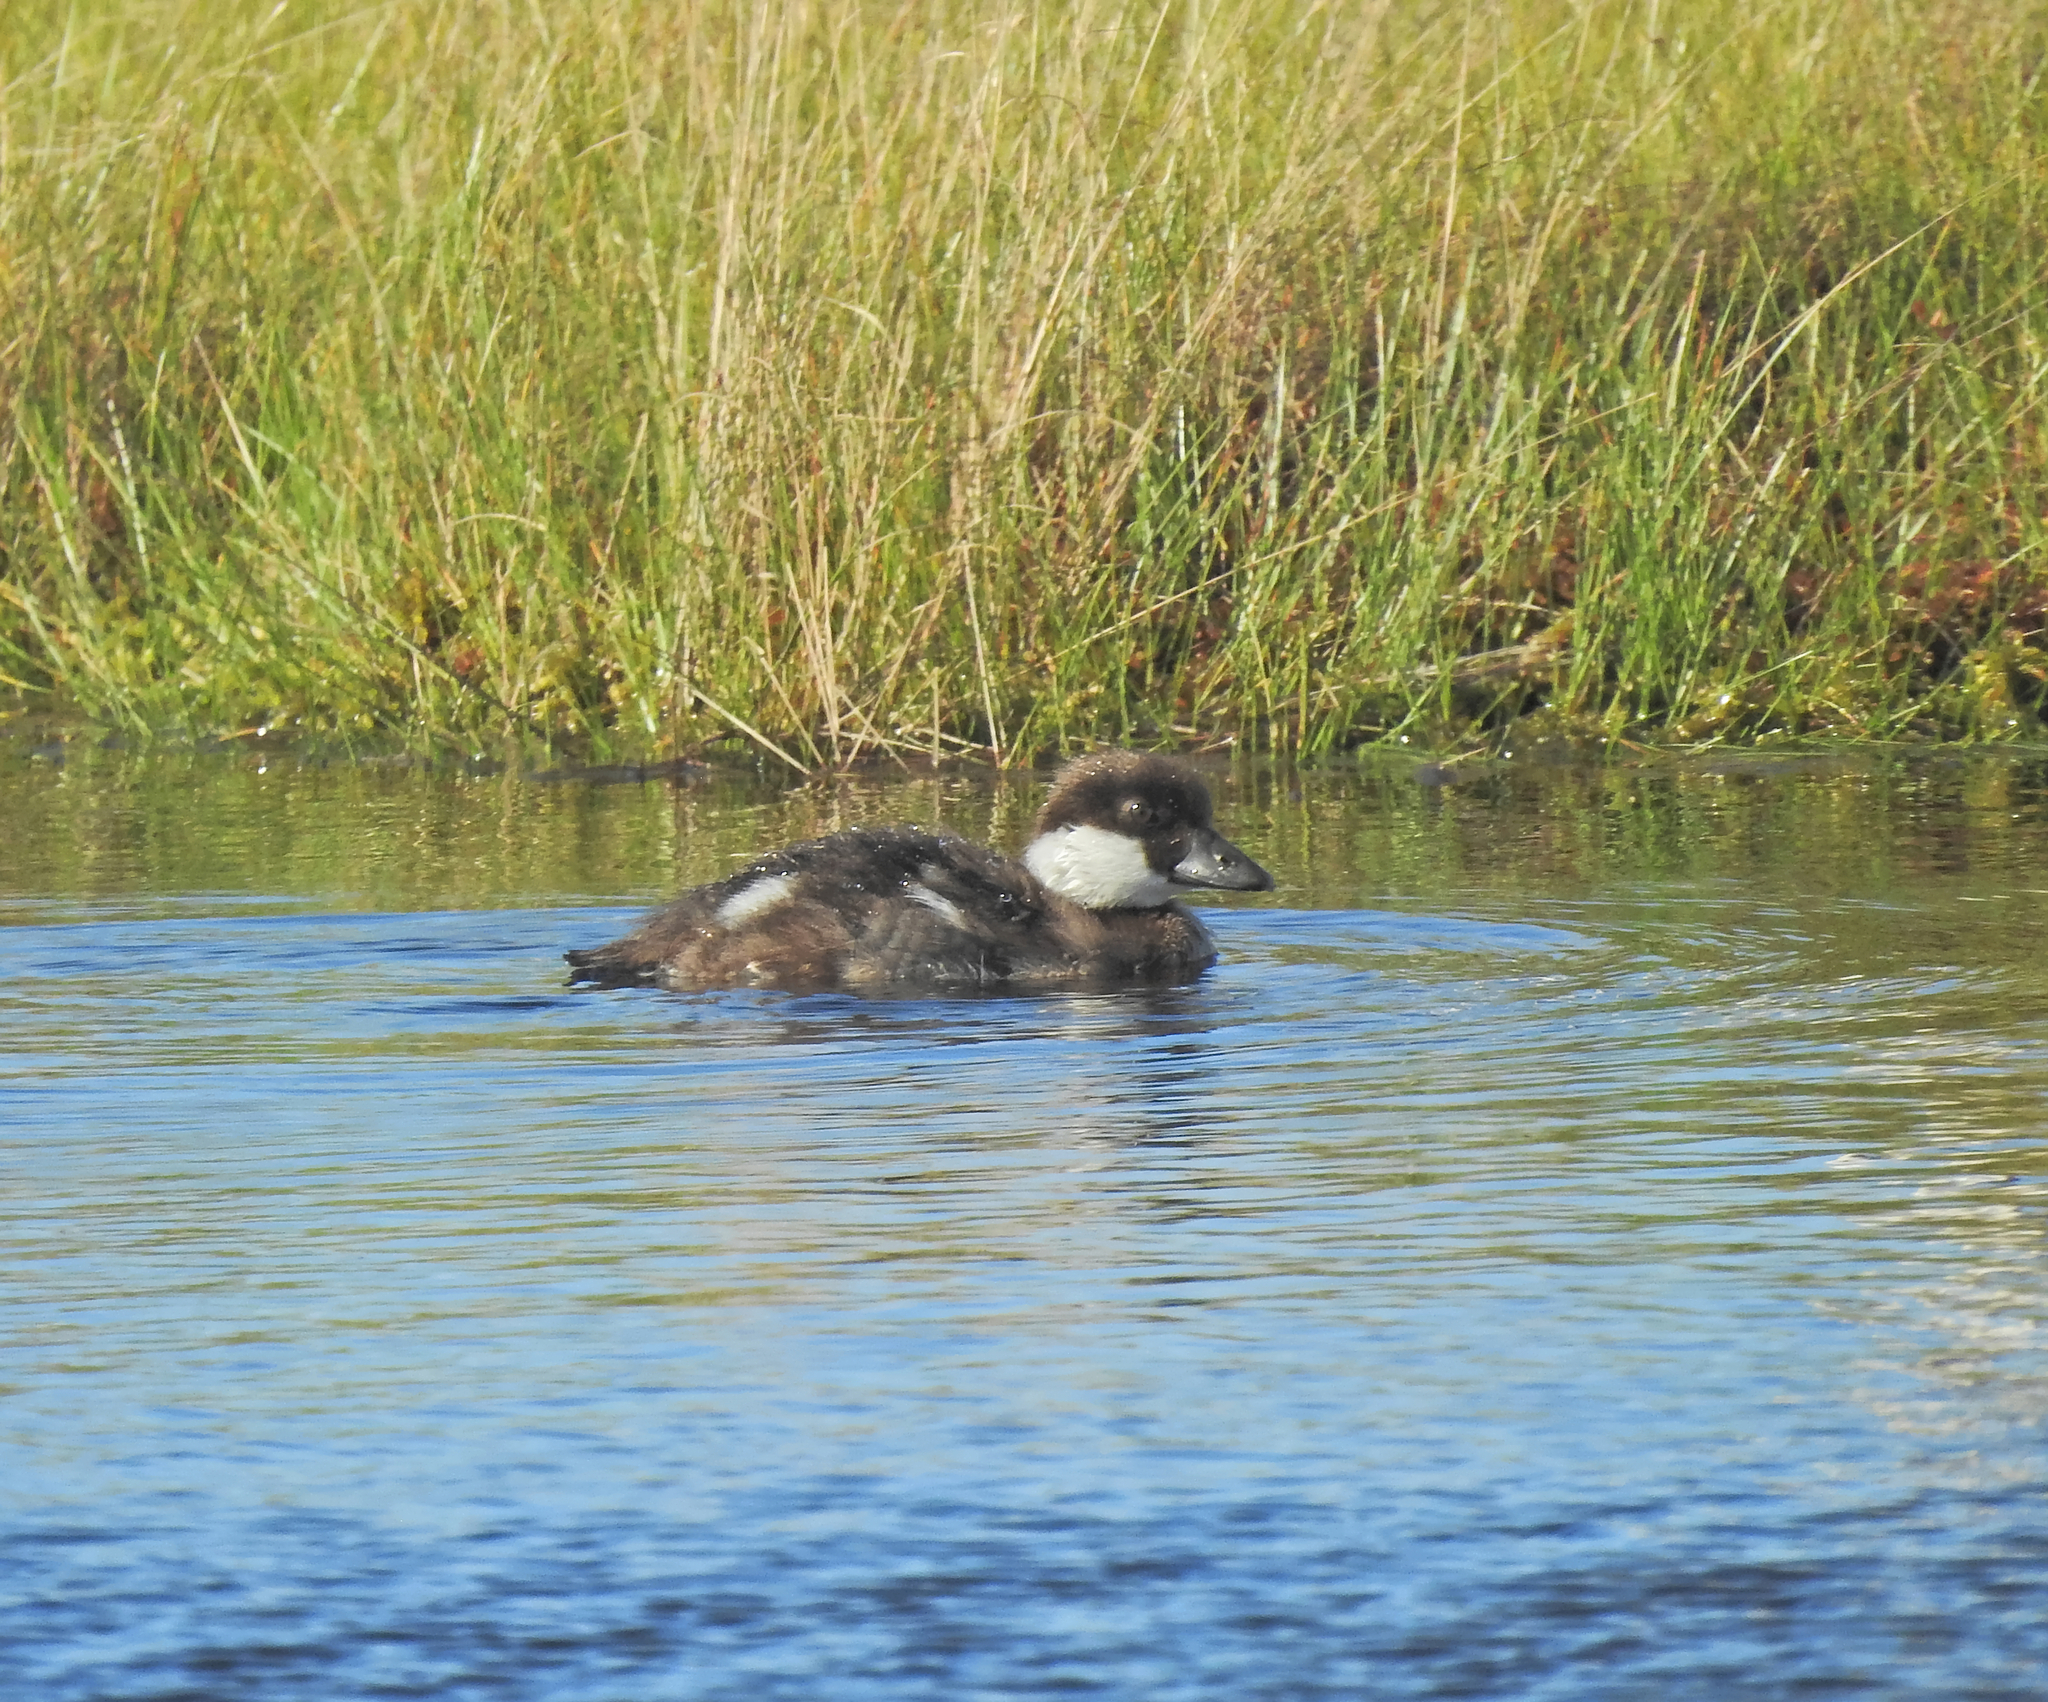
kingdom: Animalia
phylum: Chordata
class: Aves
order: Anseriformes
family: Anatidae
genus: Bucephala
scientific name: Bucephala clangula
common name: Common goldeneye
